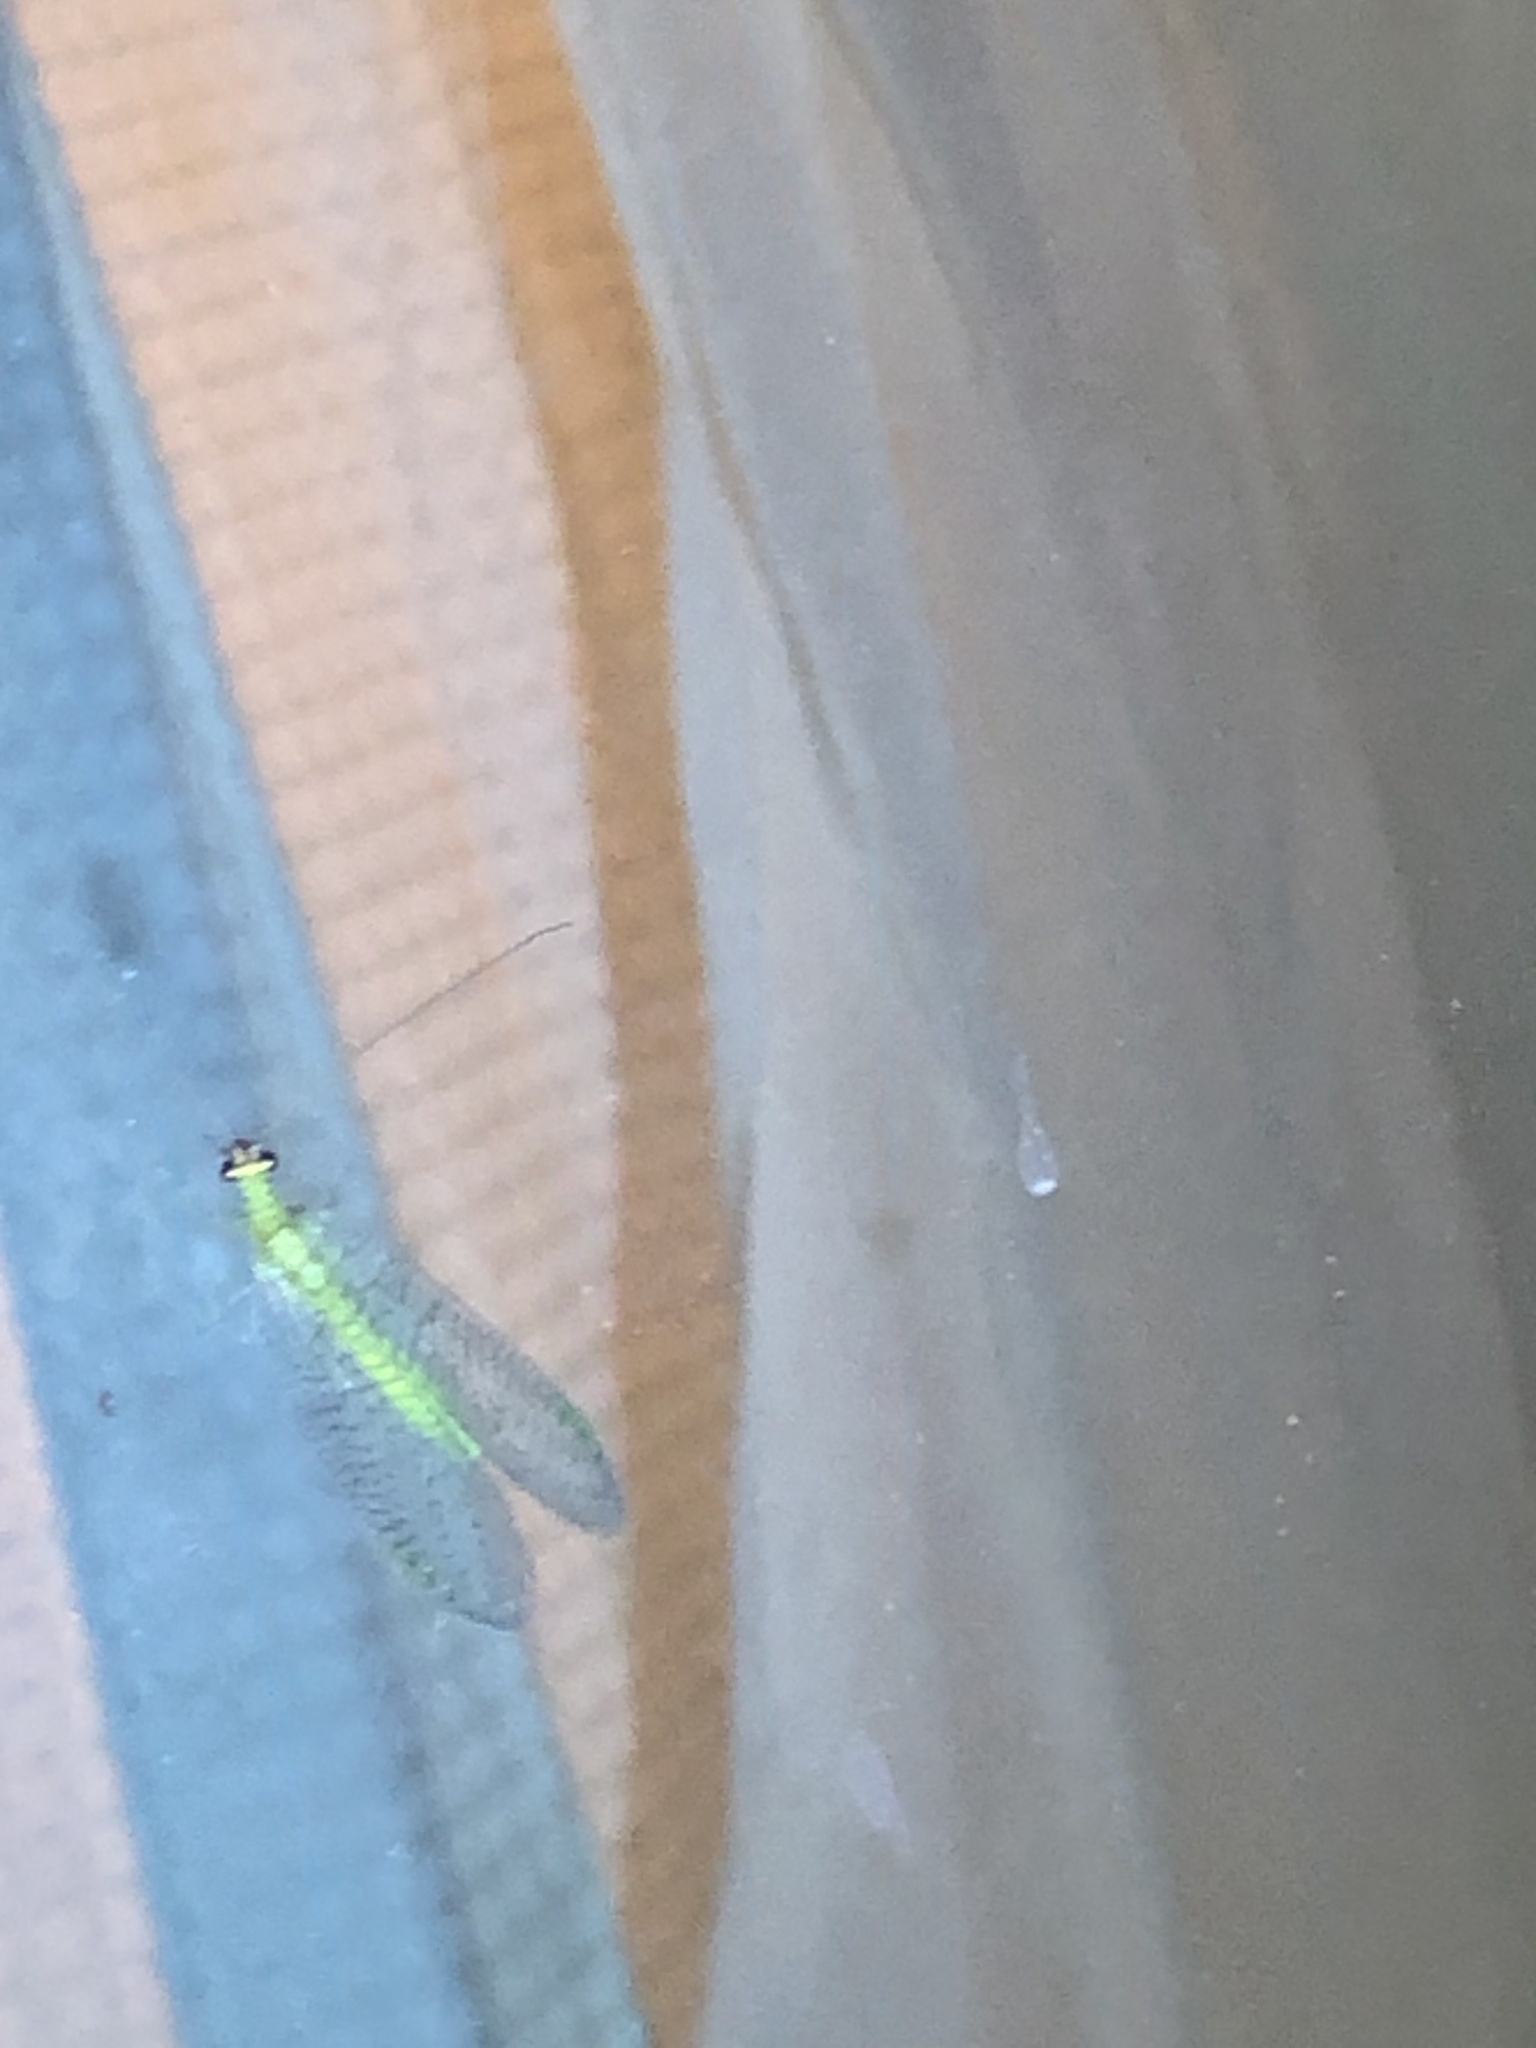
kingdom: Animalia
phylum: Arthropoda
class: Insecta
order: Neuroptera
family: Chrysopidae
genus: Chrysopa
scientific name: Chrysopa oculata
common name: Golden-eyed lacewing
